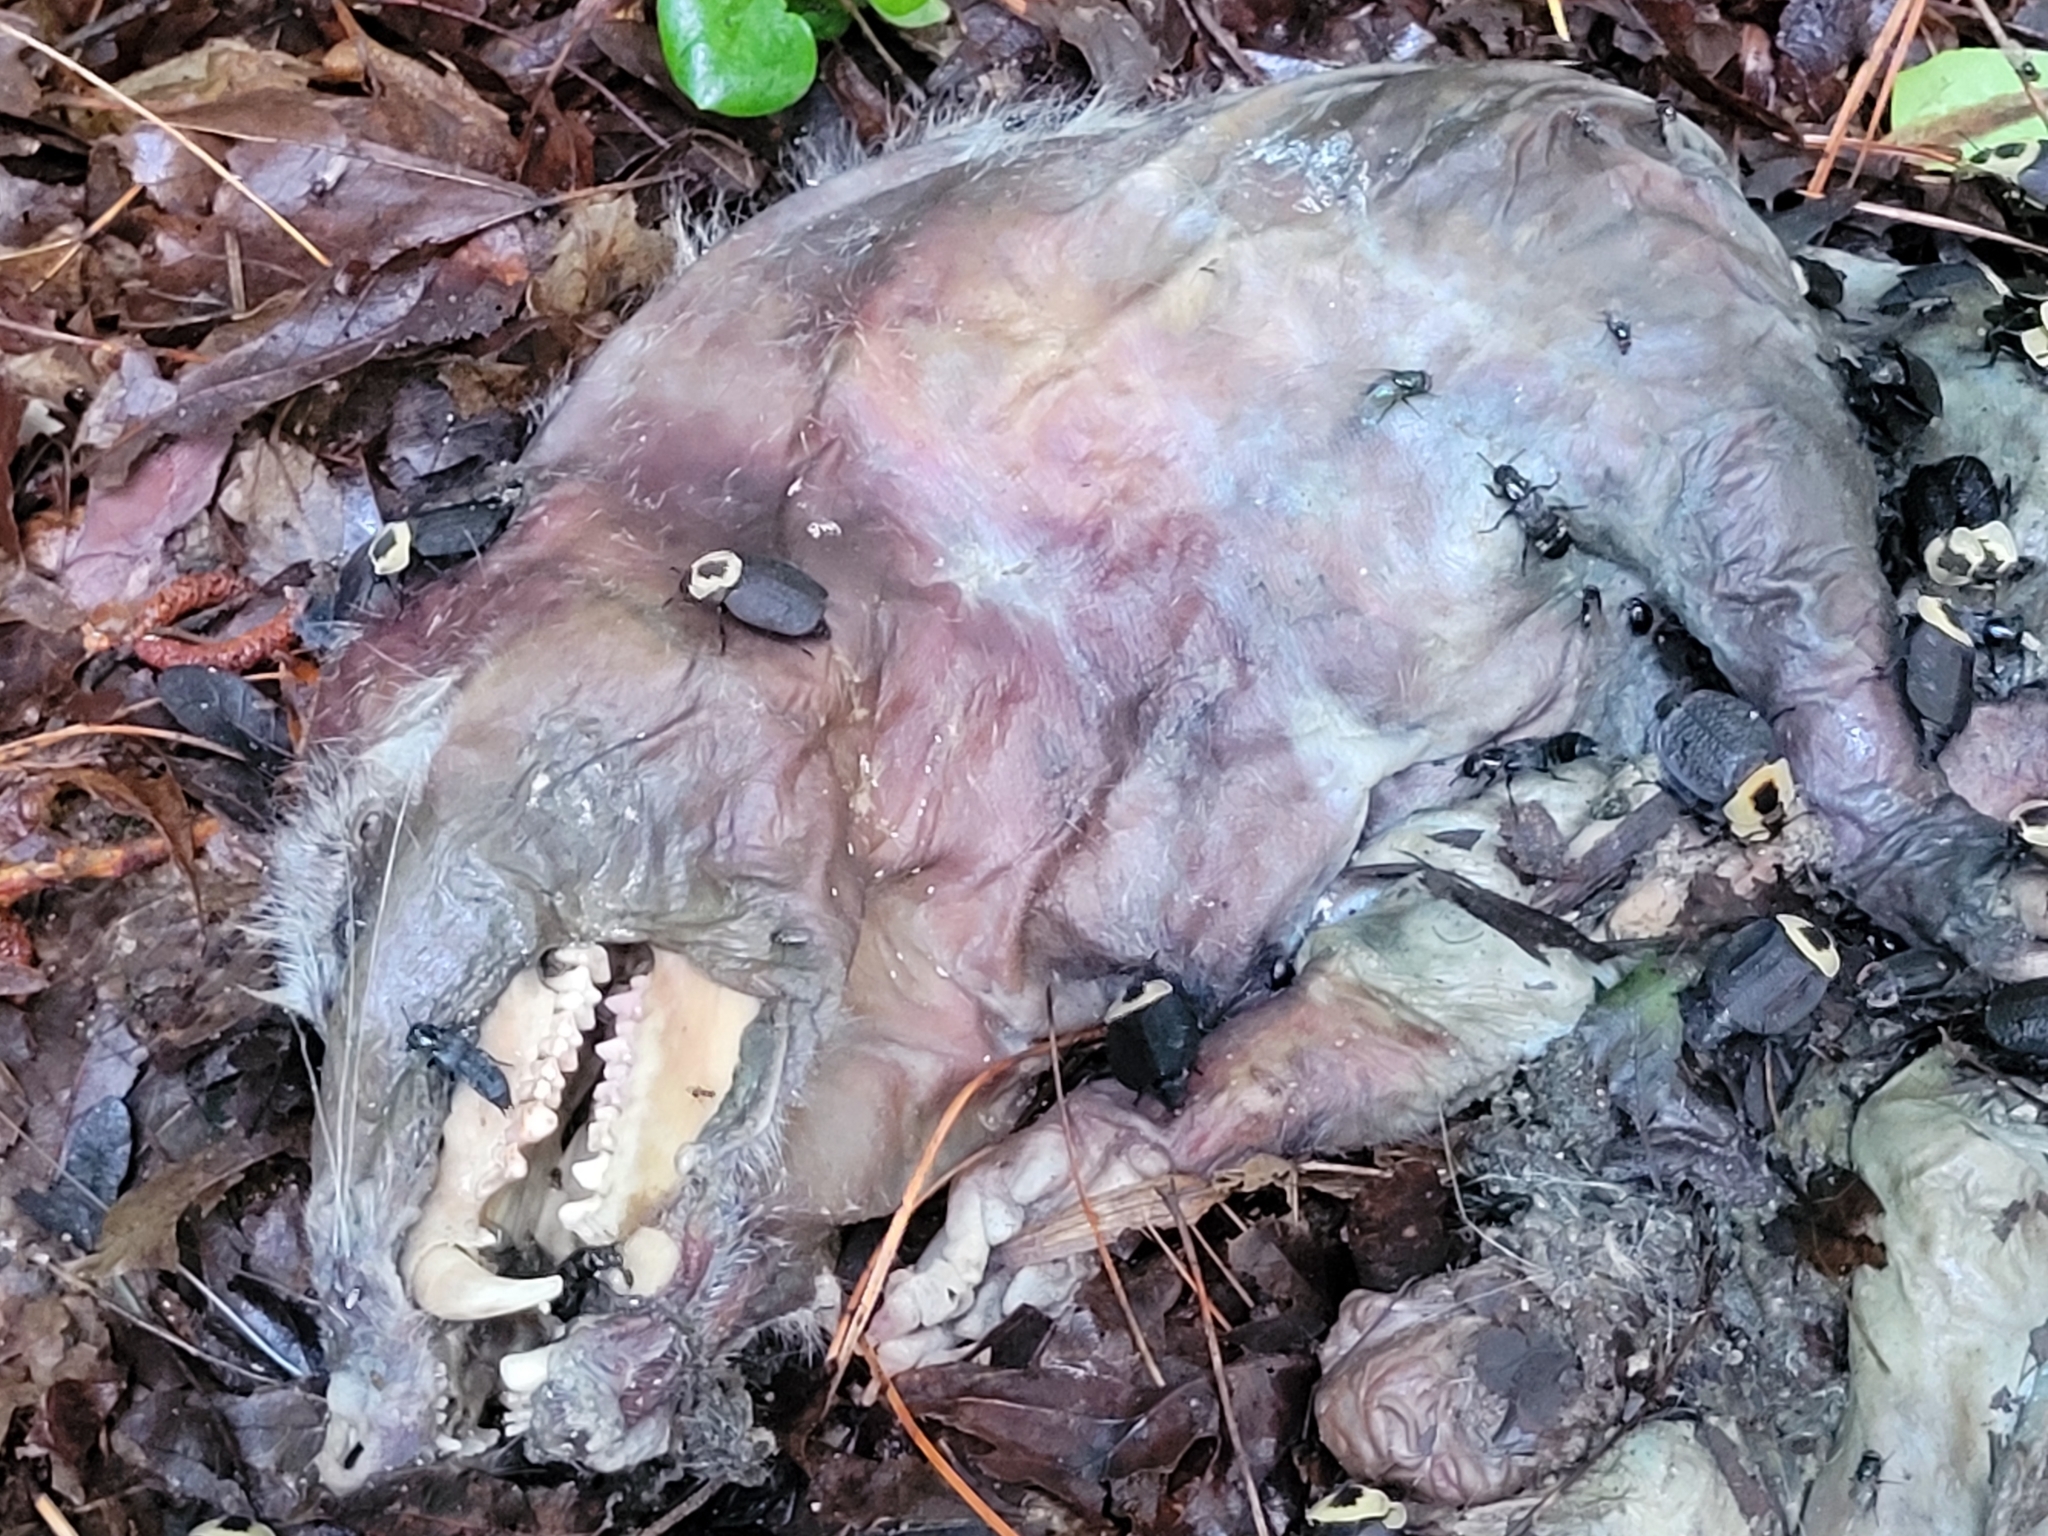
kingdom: Animalia
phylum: Chordata
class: Mammalia
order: Didelphimorphia
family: Didelphidae
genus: Didelphis
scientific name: Didelphis virginiana
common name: Virginia opossum
